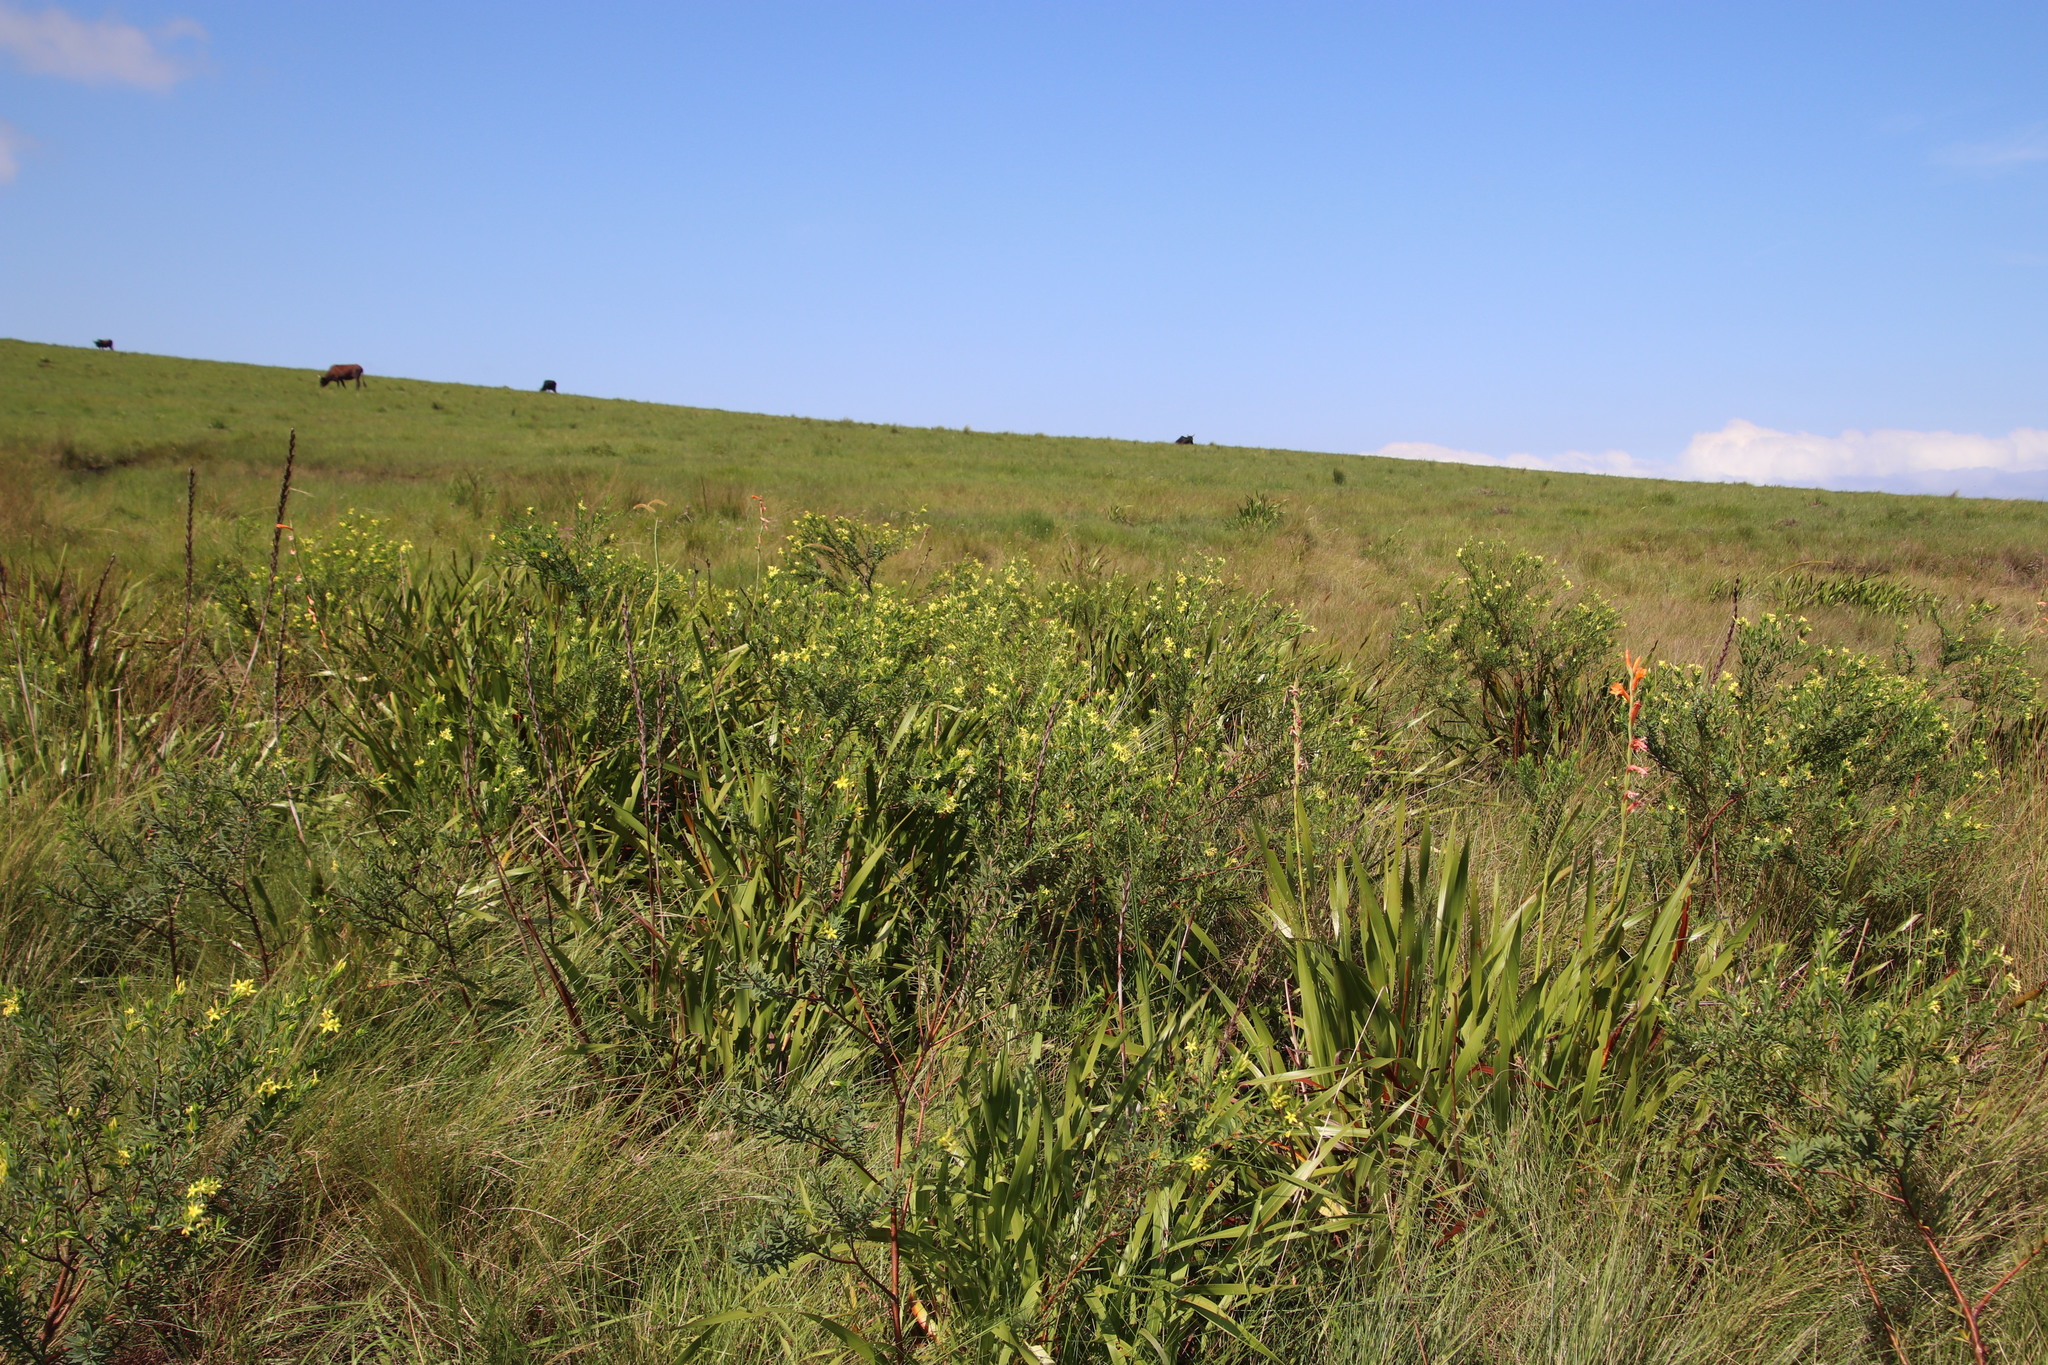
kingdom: Plantae
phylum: Tracheophyta
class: Magnoliopsida
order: Malvales
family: Thymelaeaceae
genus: Gnidia
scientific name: Gnidia triplinervis
